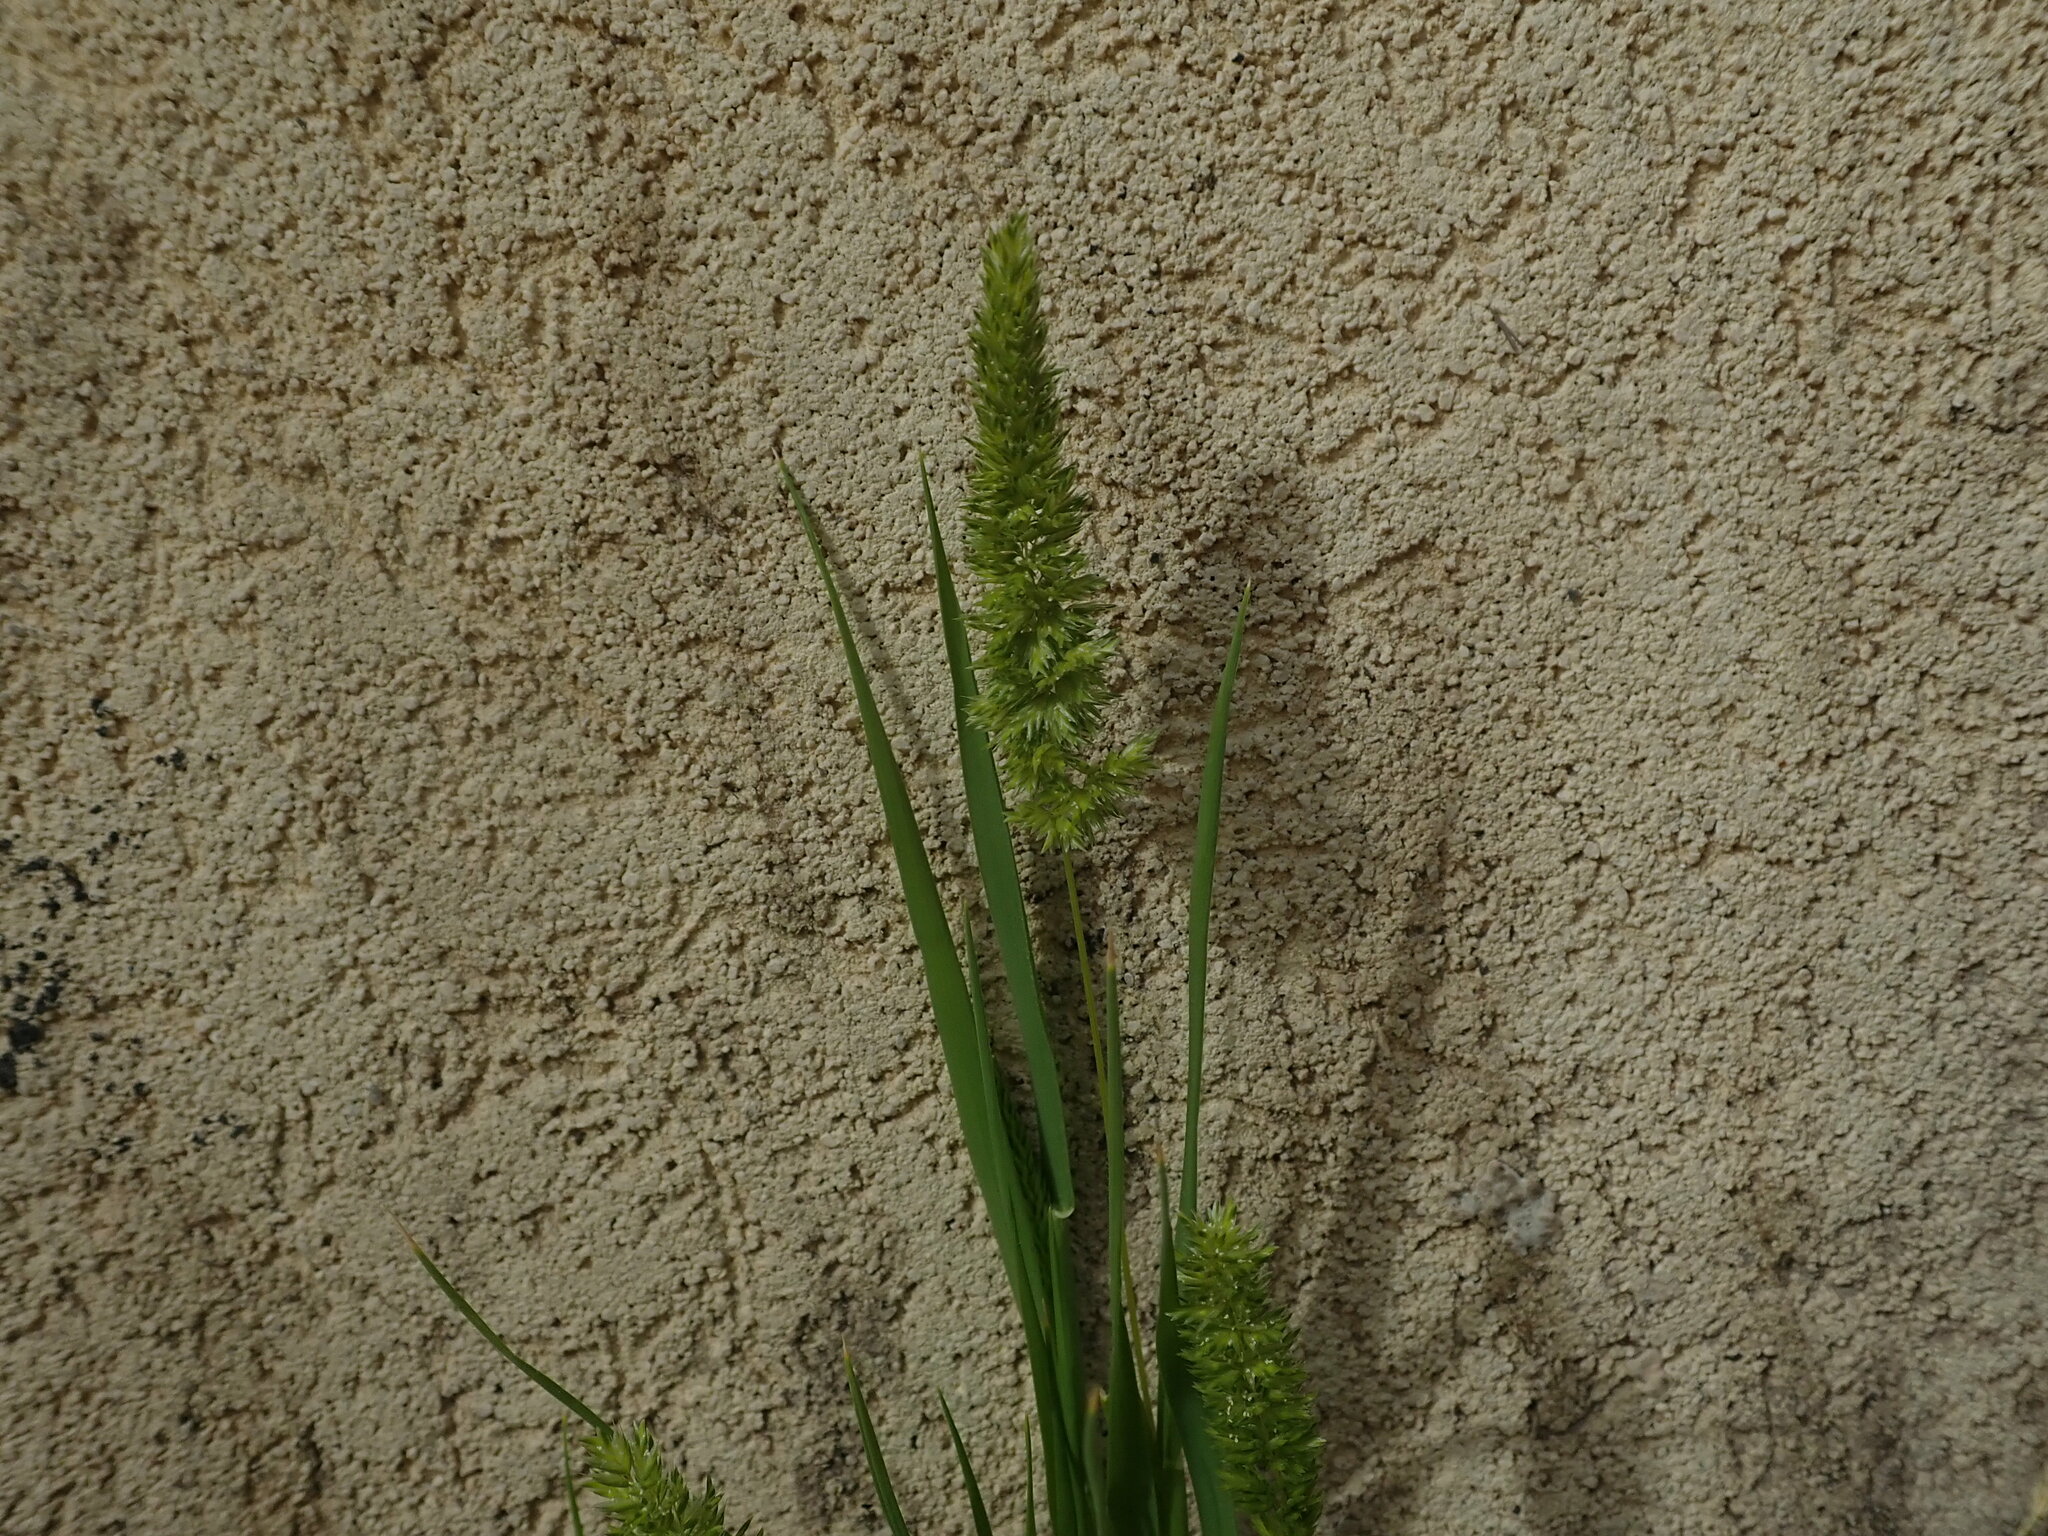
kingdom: Plantae
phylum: Tracheophyta
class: Liliopsida
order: Poales
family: Poaceae
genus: Rostraria
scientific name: Rostraria cristata
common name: Mediterranean hair-grass
